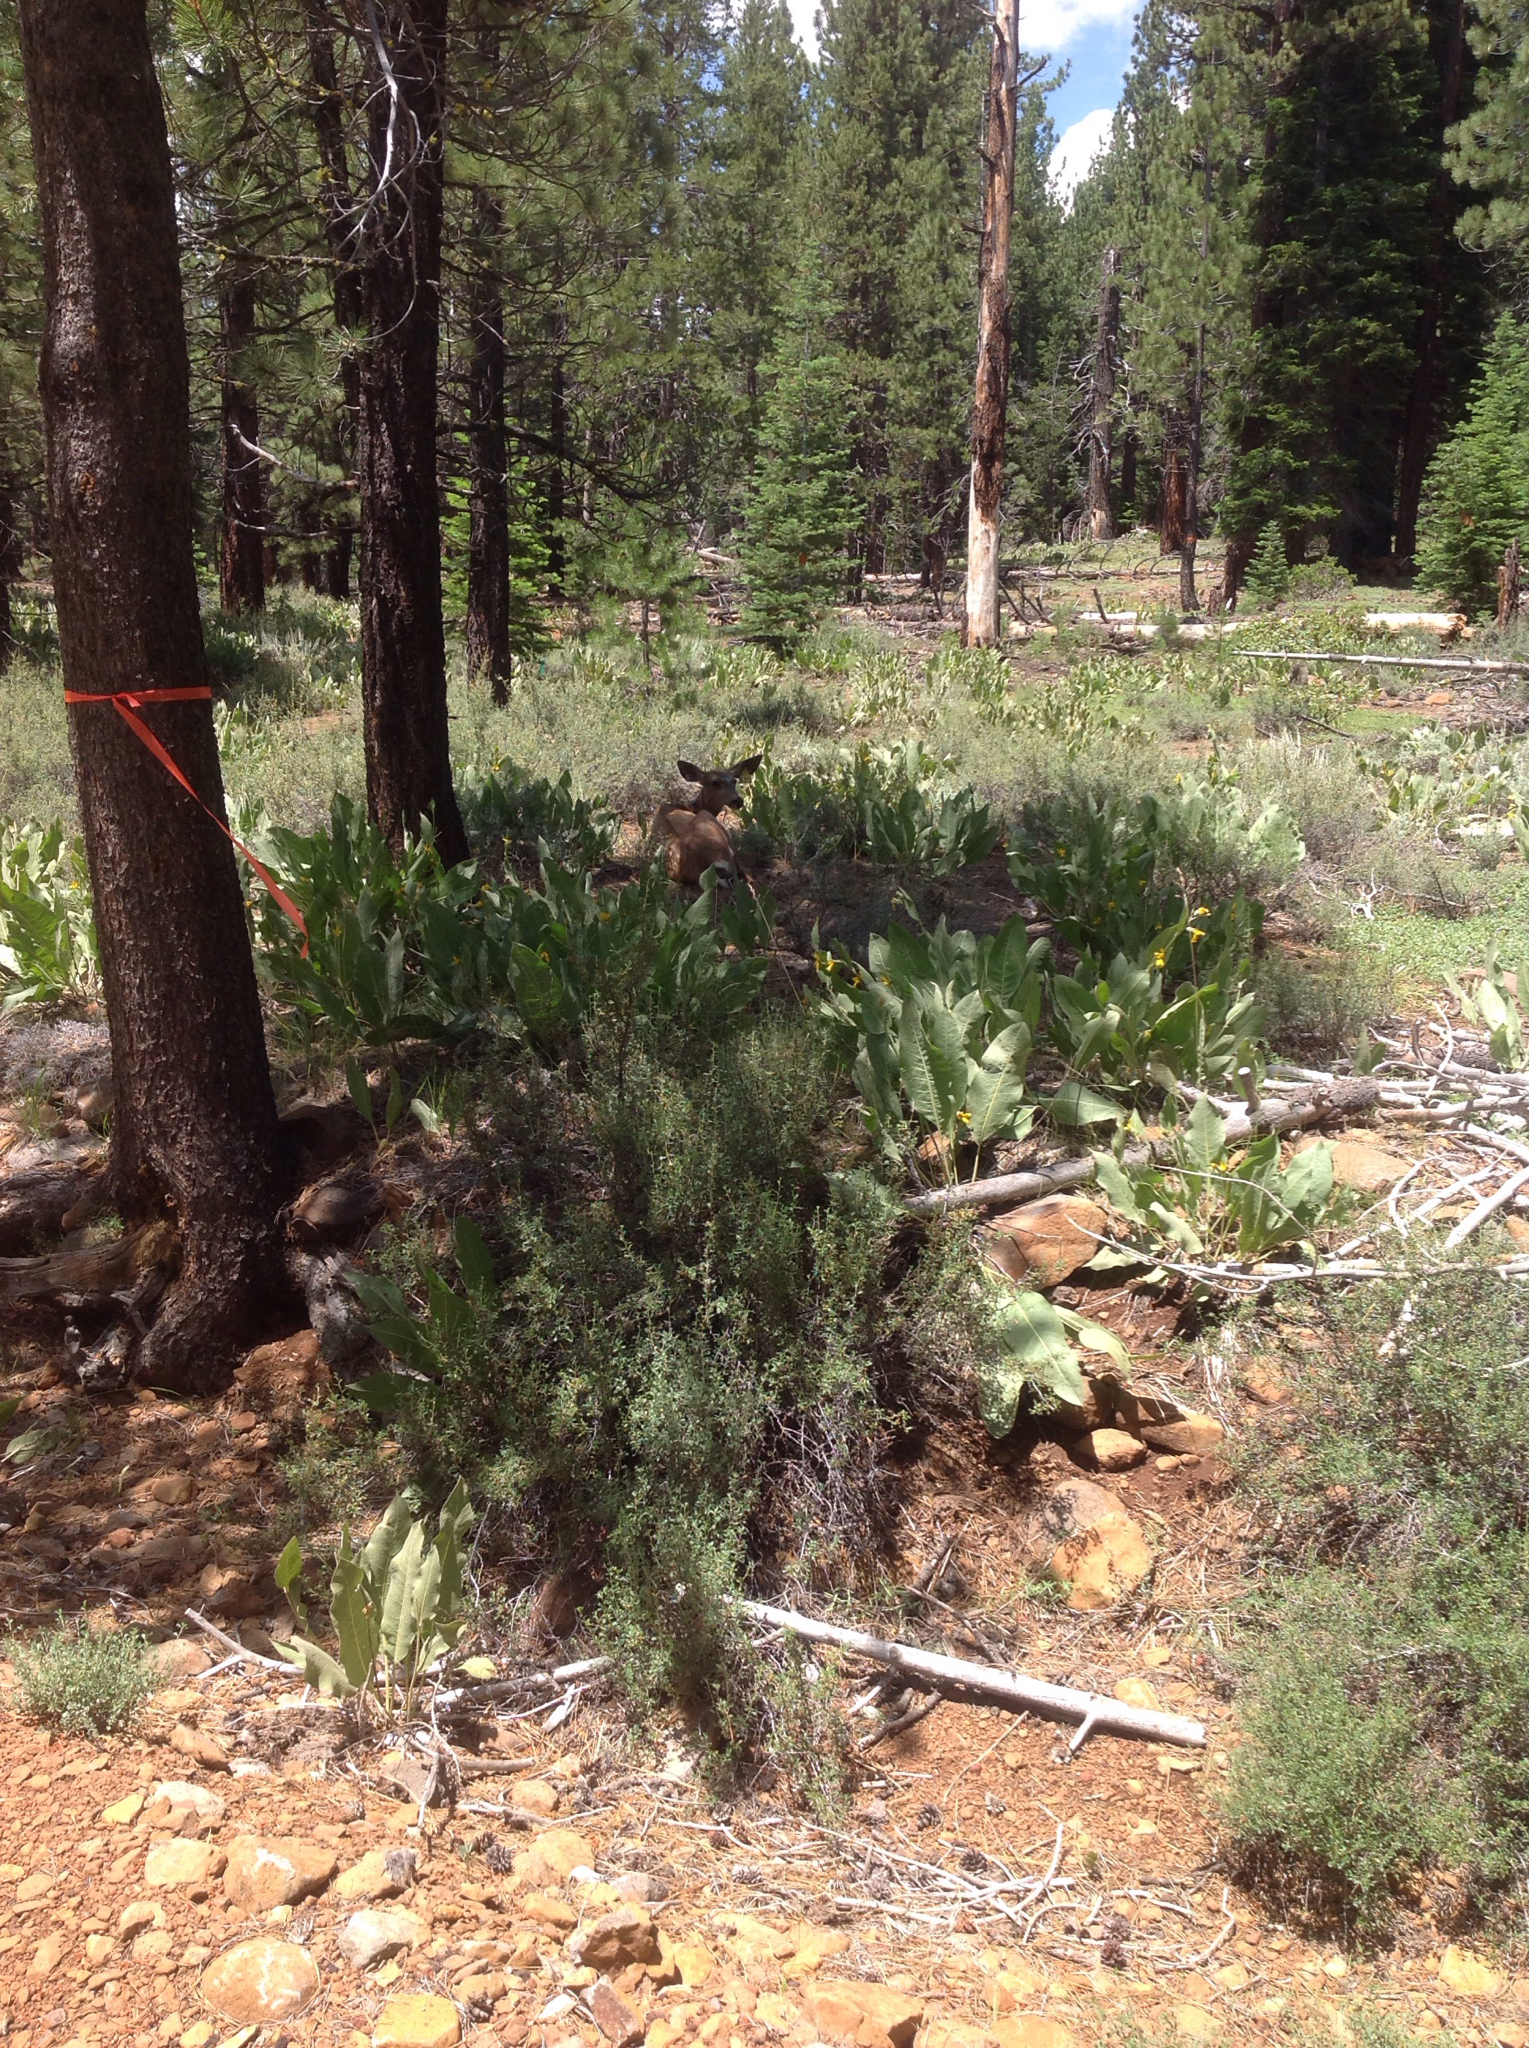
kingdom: Animalia
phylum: Chordata
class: Mammalia
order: Artiodactyla
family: Cervidae
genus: Odocoileus
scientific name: Odocoileus hemionus
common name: Mule deer
